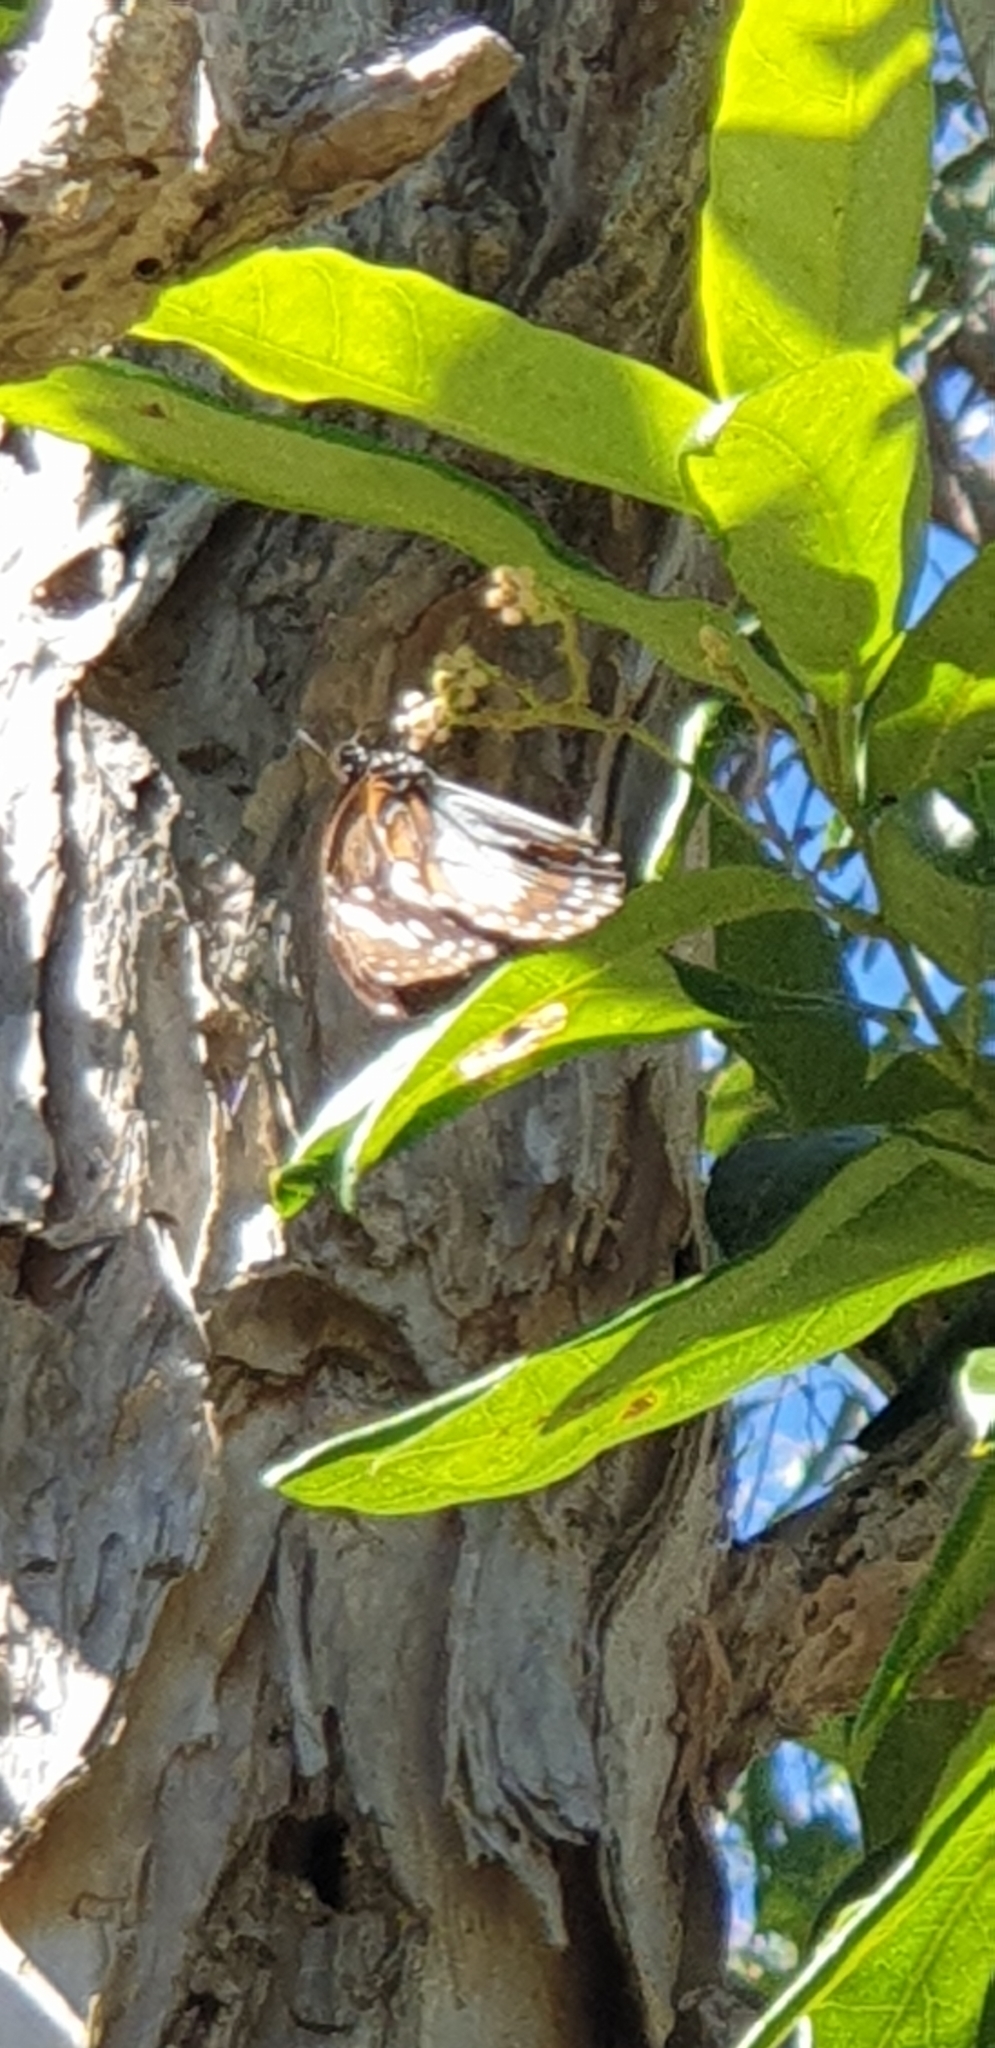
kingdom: Animalia
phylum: Arthropoda
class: Insecta
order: Lepidoptera
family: Nymphalidae
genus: Danaus
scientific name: Danaus affinis
